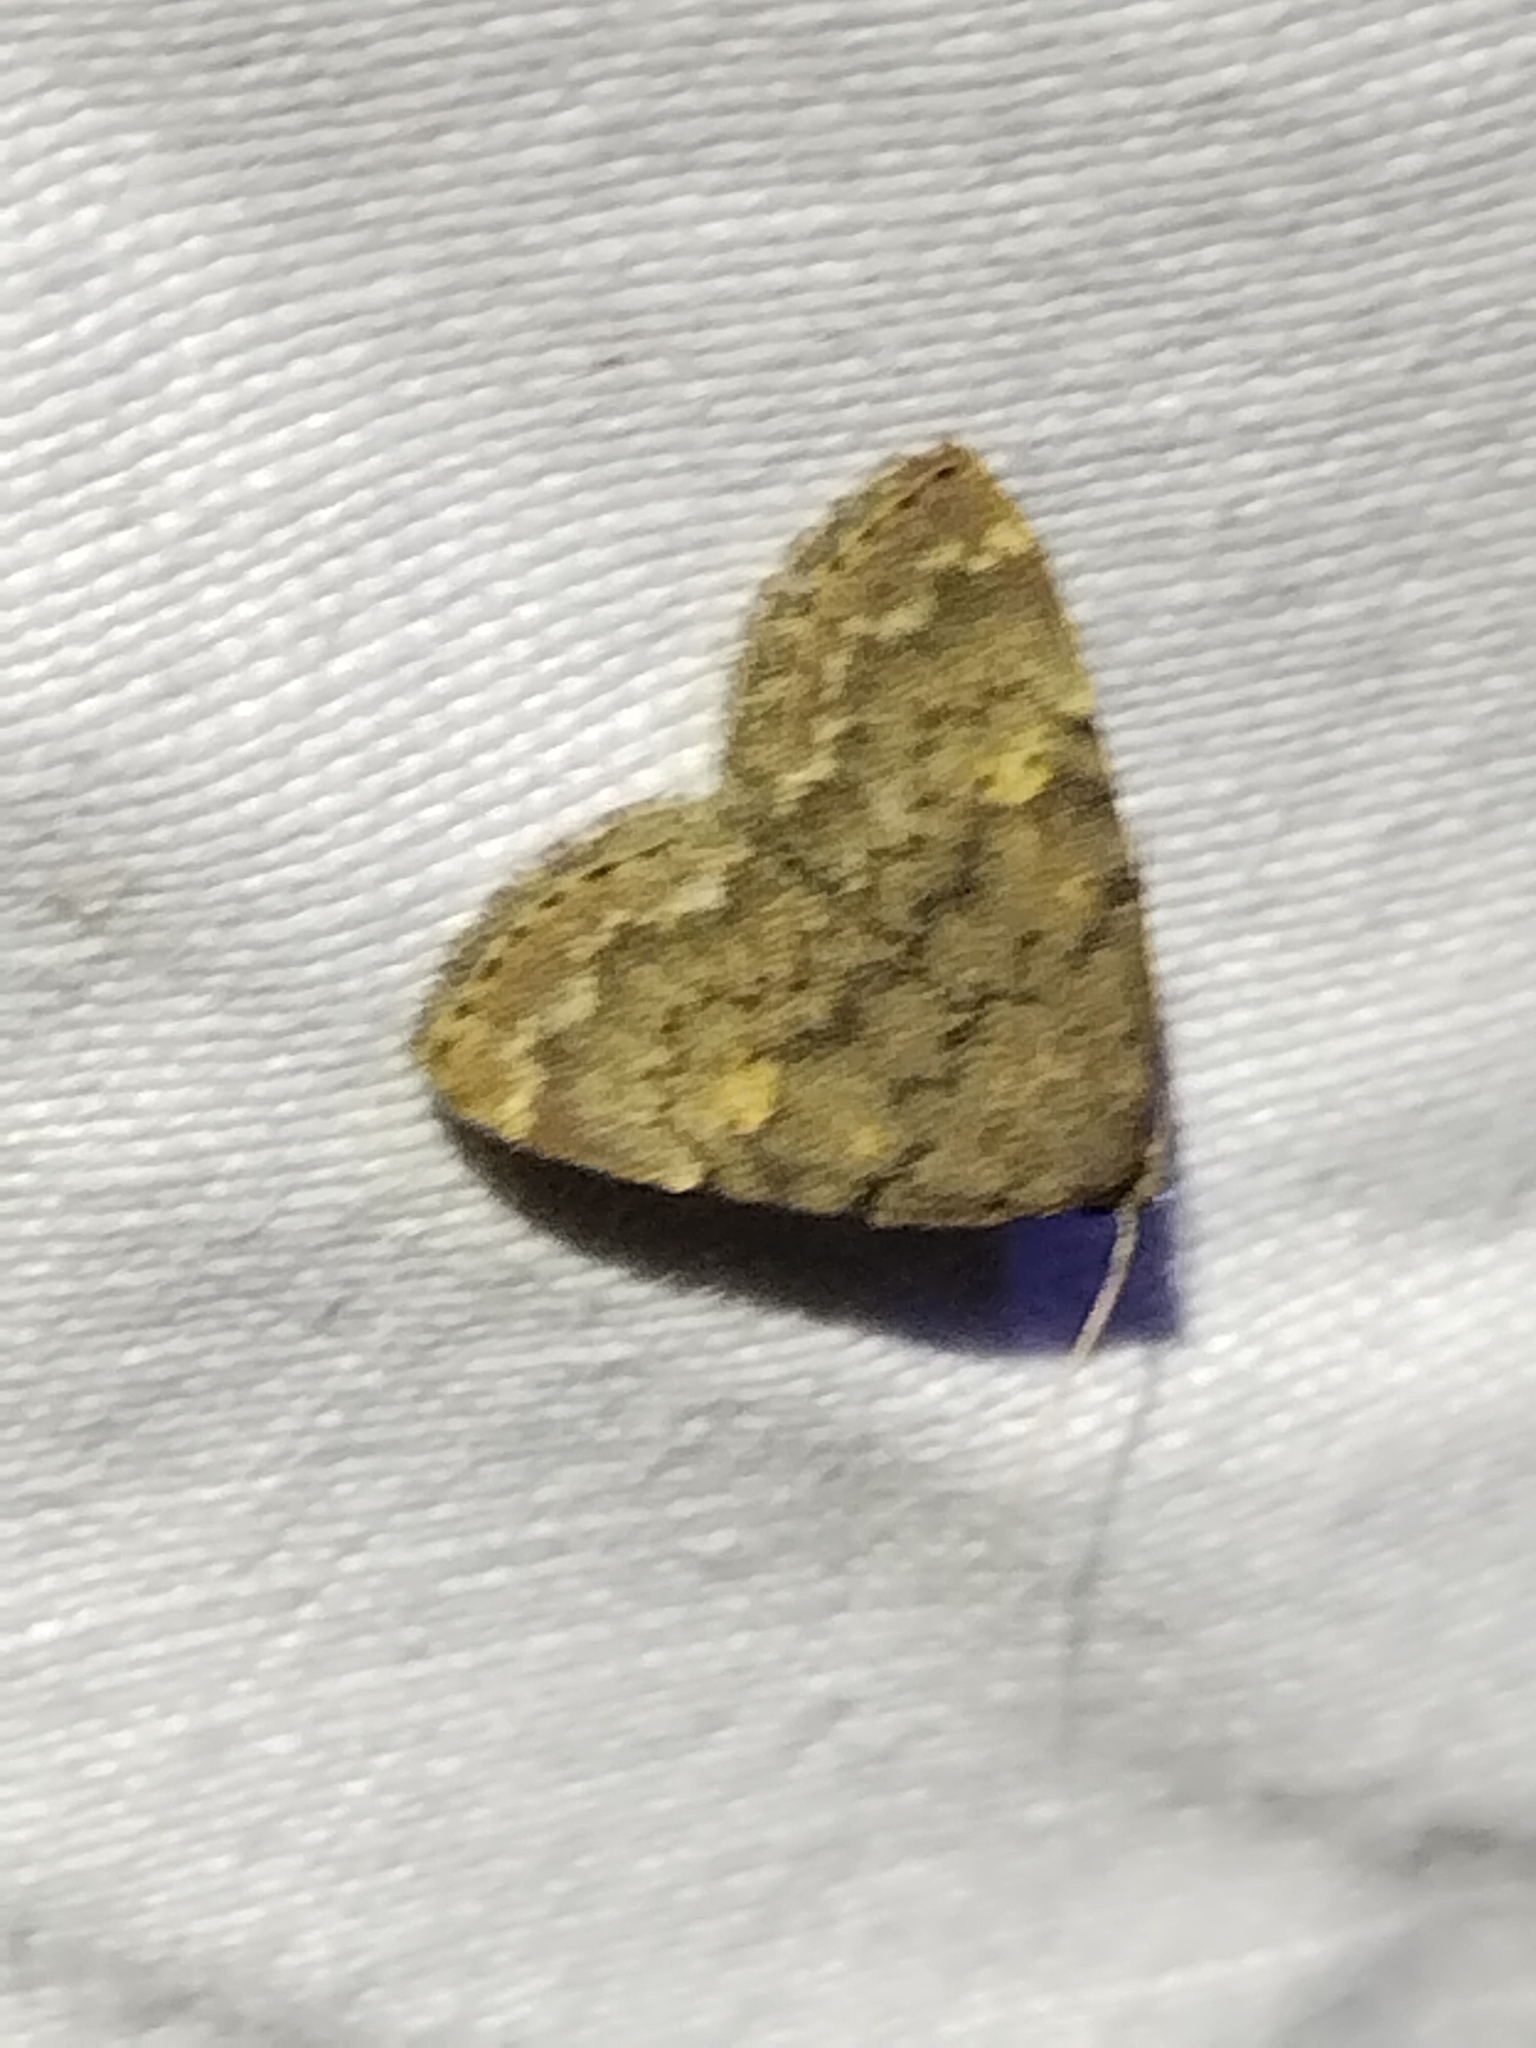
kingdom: Animalia
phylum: Arthropoda
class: Insecta
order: Lepidoptera
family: Erebidae
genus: Idia
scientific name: Idia aemula
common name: Common idia moth
